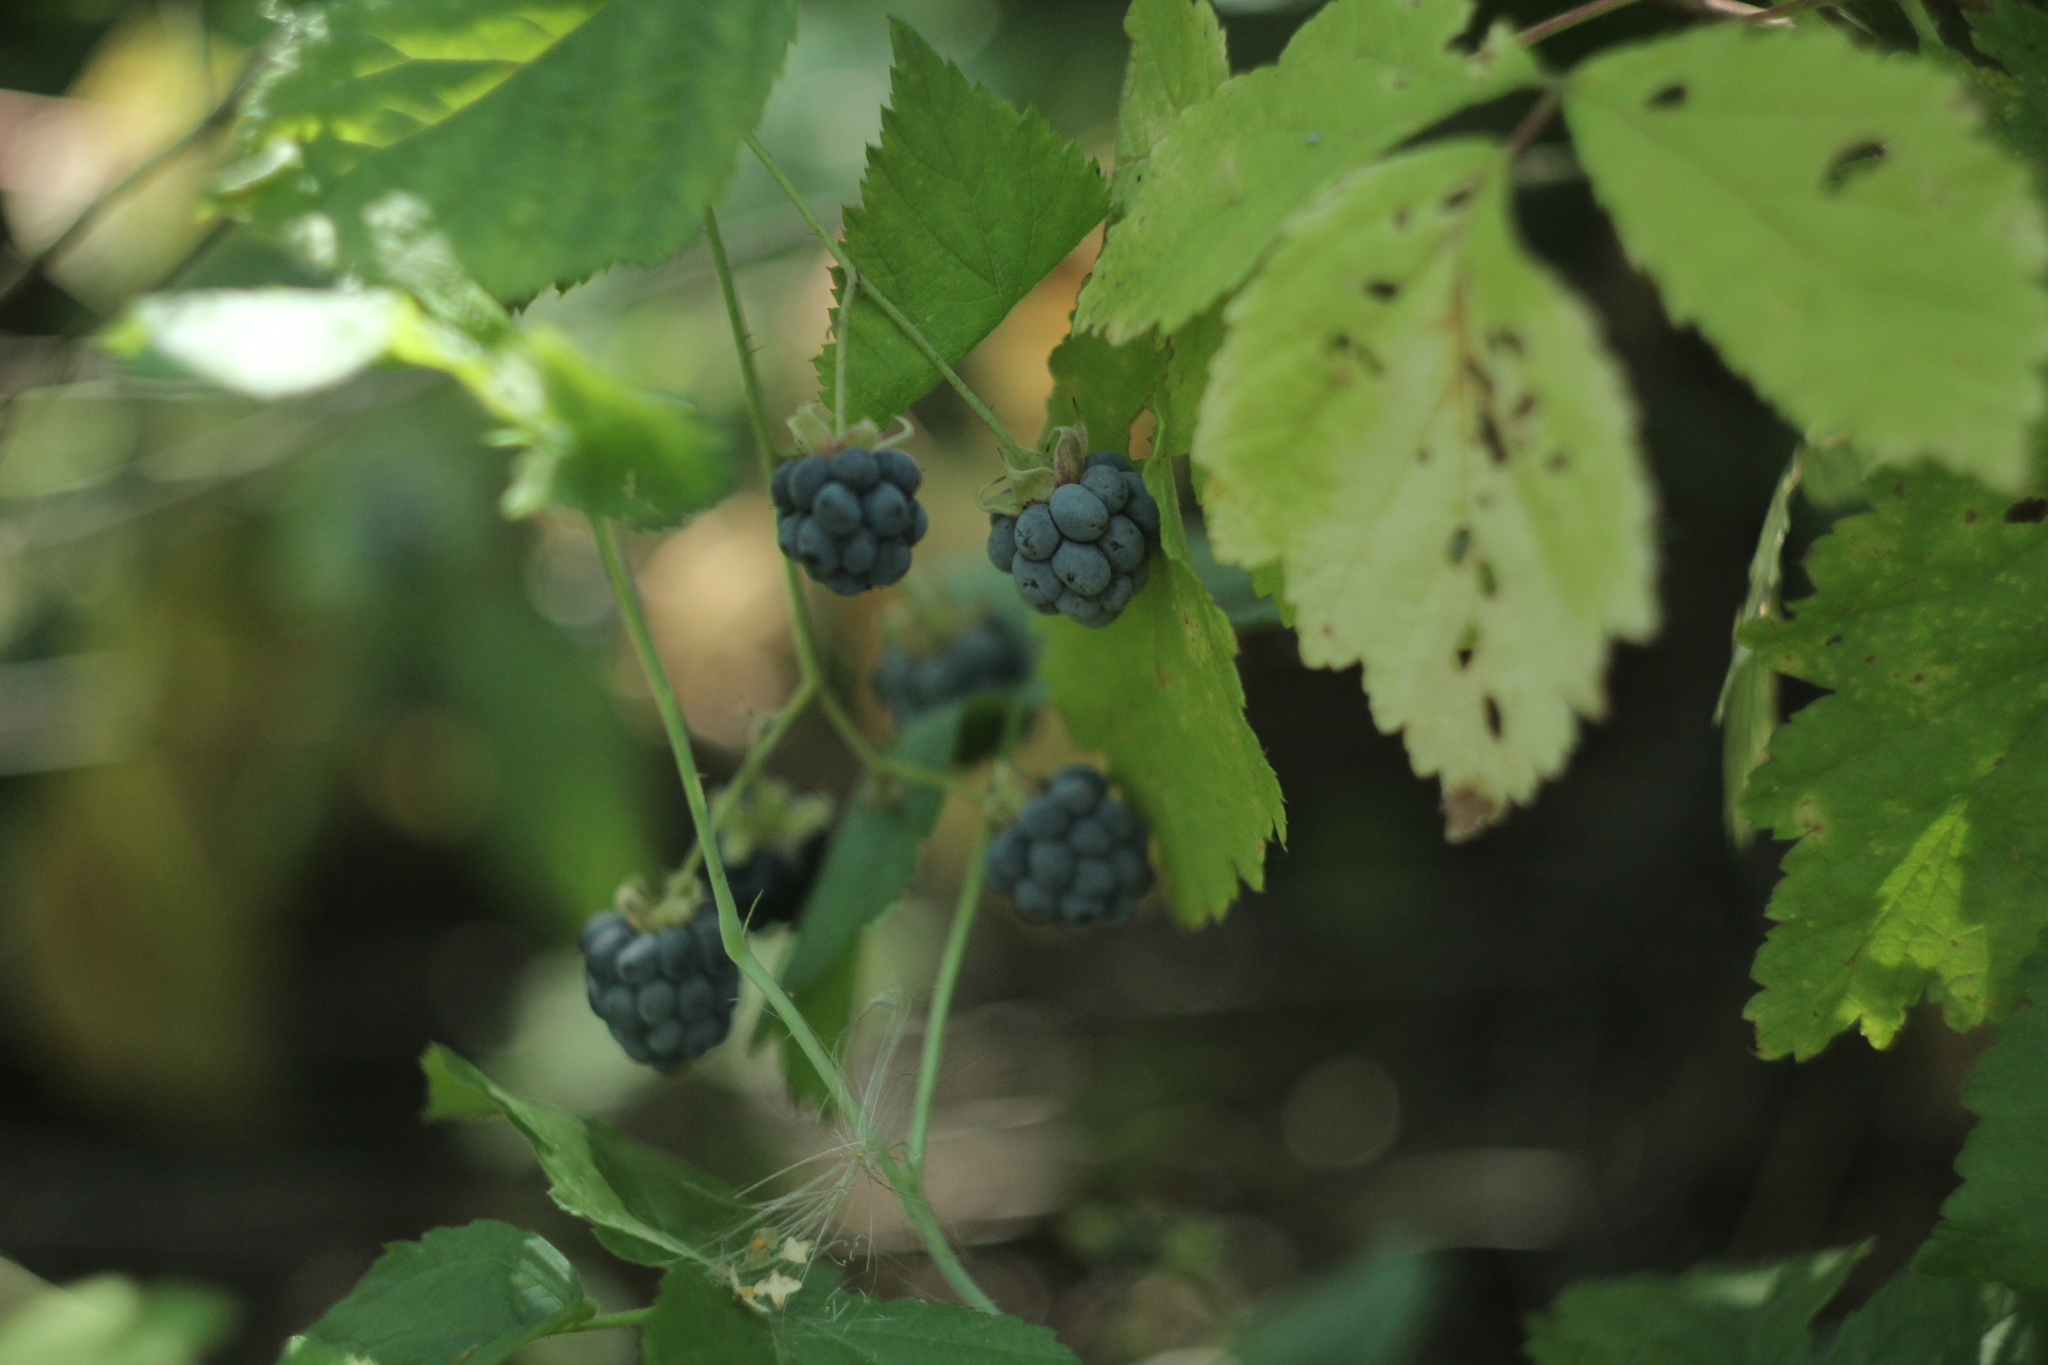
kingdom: Plantae
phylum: Tracheophyta
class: Magnoliopsida
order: Rosales
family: Rosaceae
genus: Rubus
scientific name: Rubus caesius
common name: Dewberry
